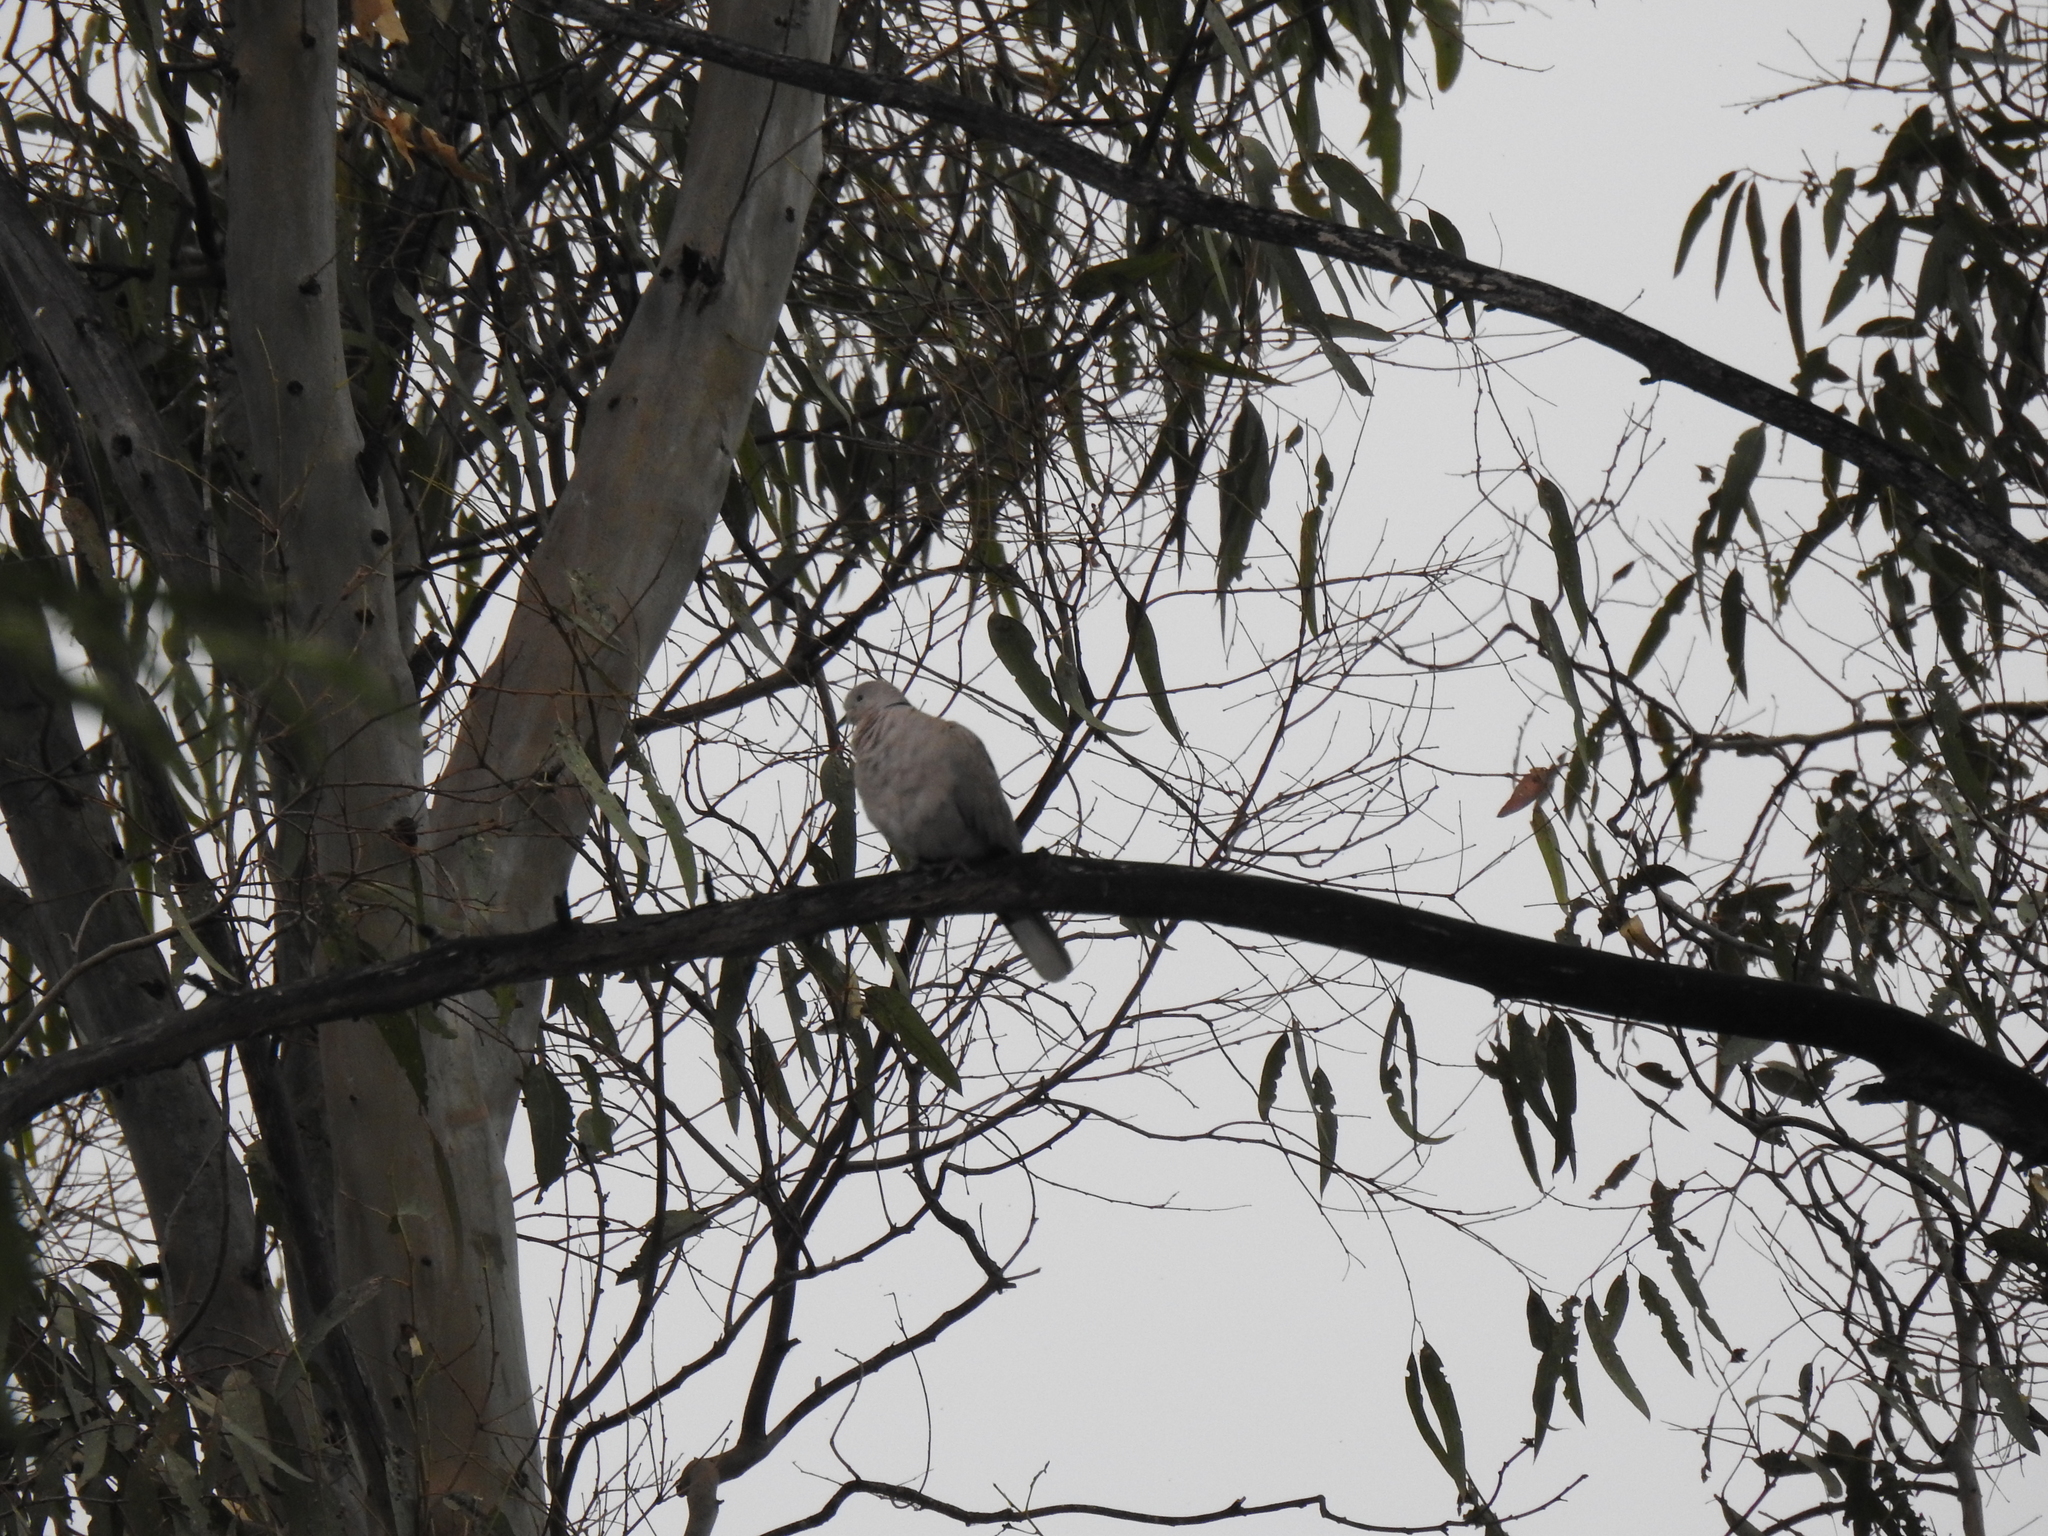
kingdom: Animalia
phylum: Chordata
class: Aves
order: Columbiformes
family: Columbidae
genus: Streptopelia
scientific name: Streptopelia decaocto
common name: Eurasian collared dove
